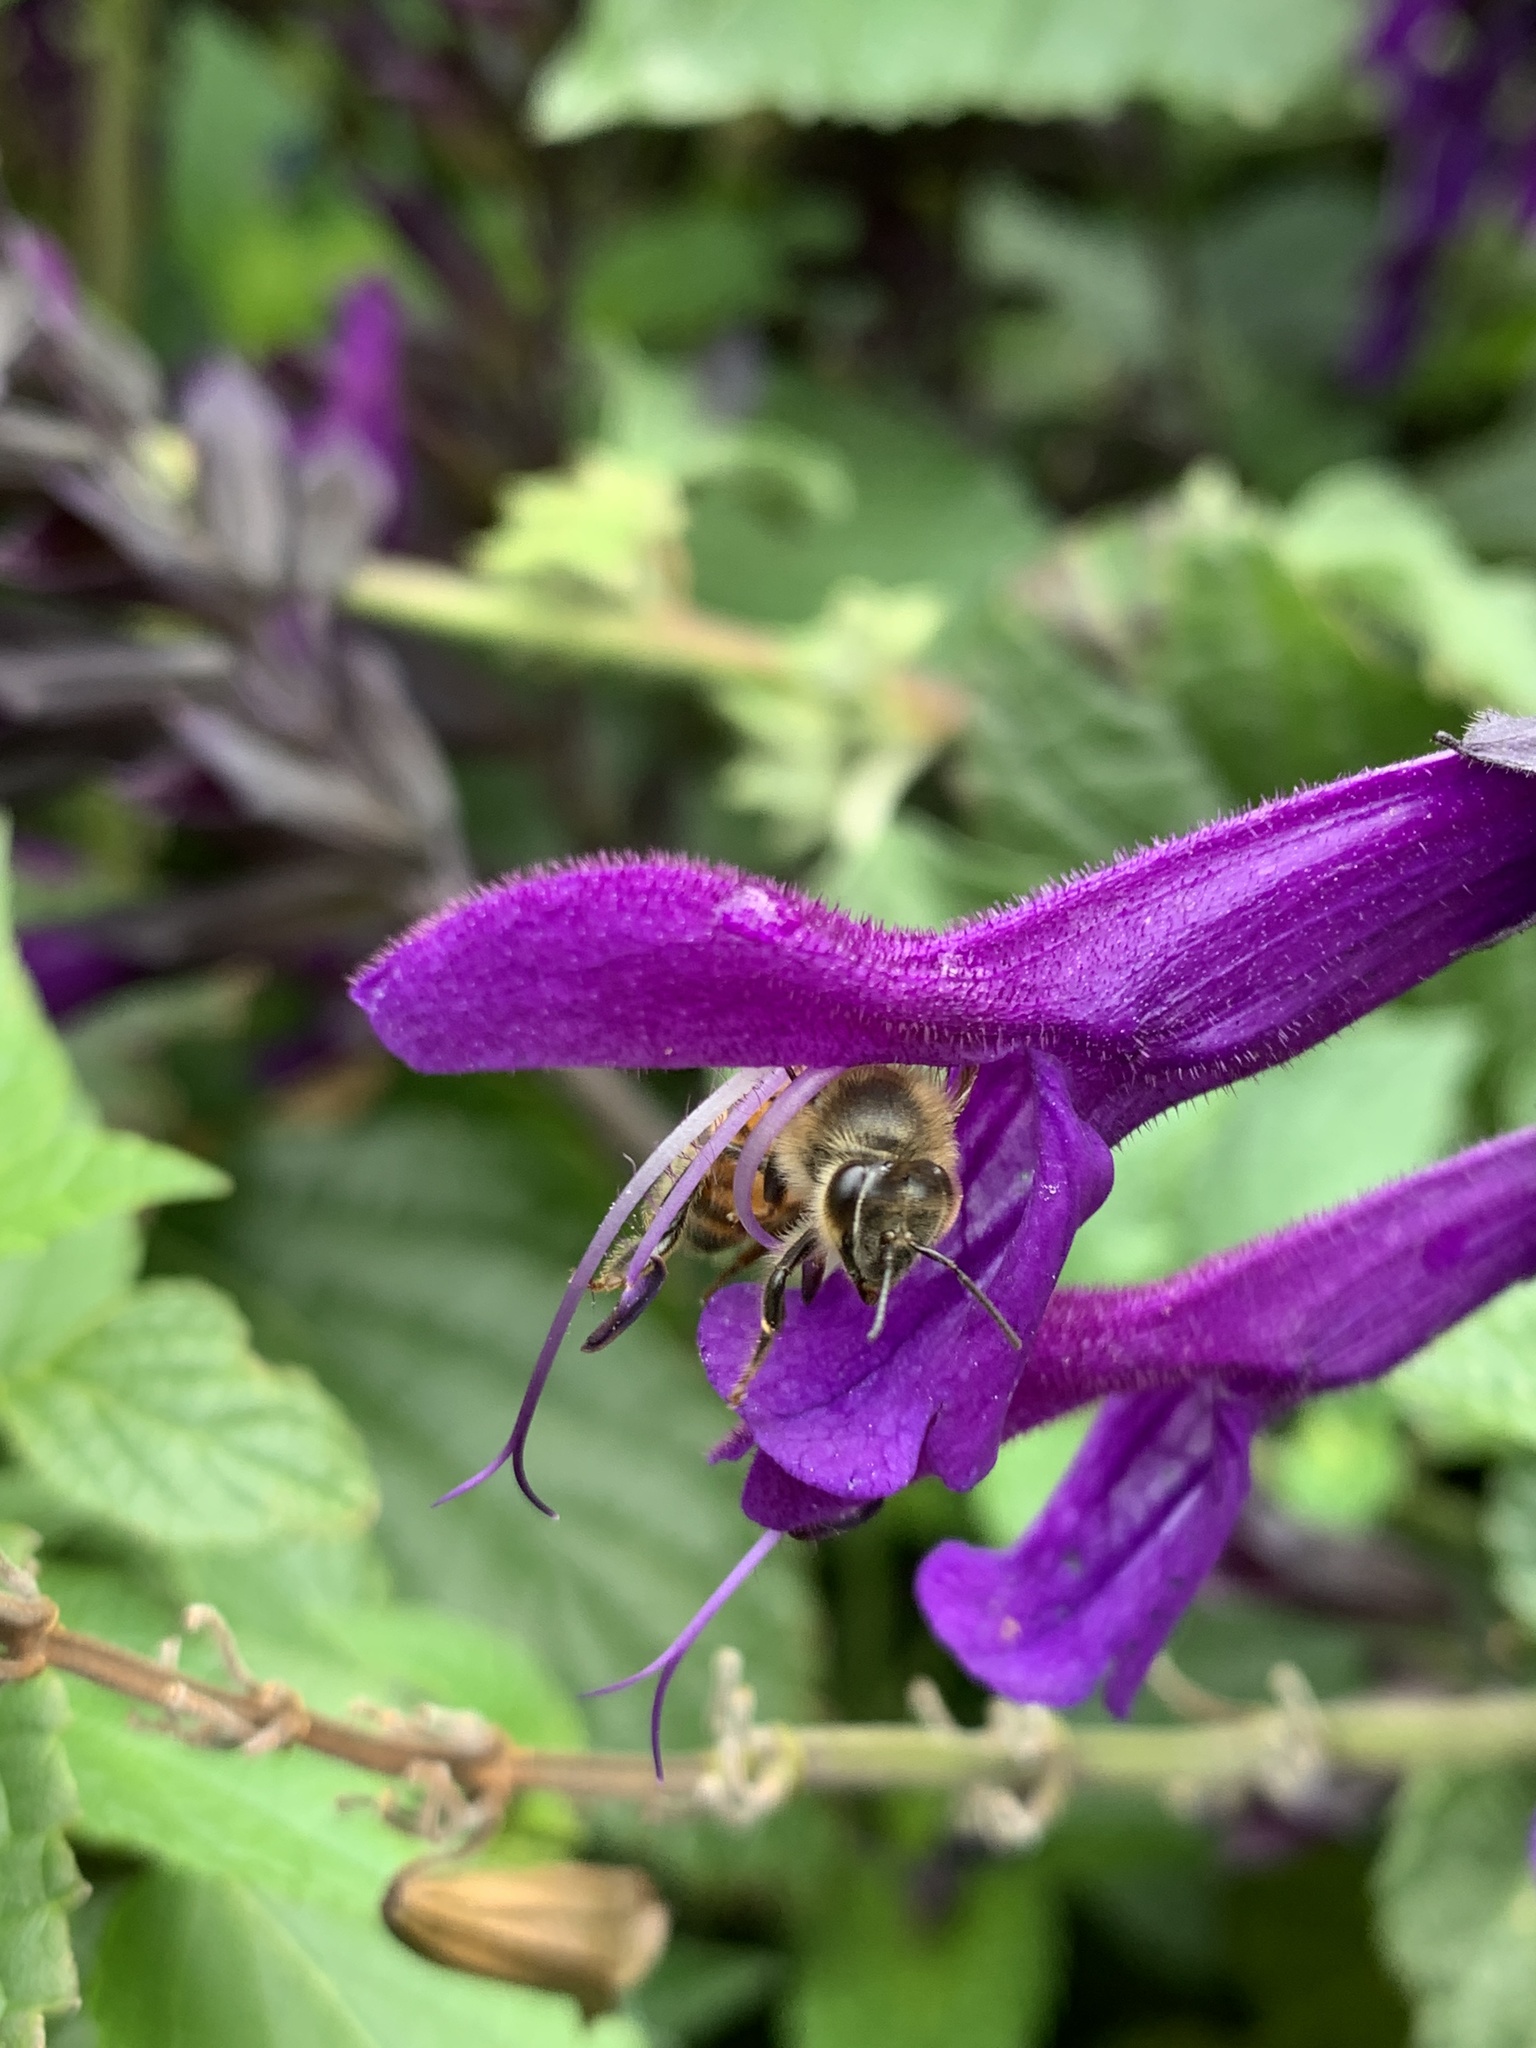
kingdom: Animalia
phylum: Arthropoda
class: Insecta
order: Hymenoptera
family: Apidae
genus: Apis
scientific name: Apis mellifera
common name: Honey bee
